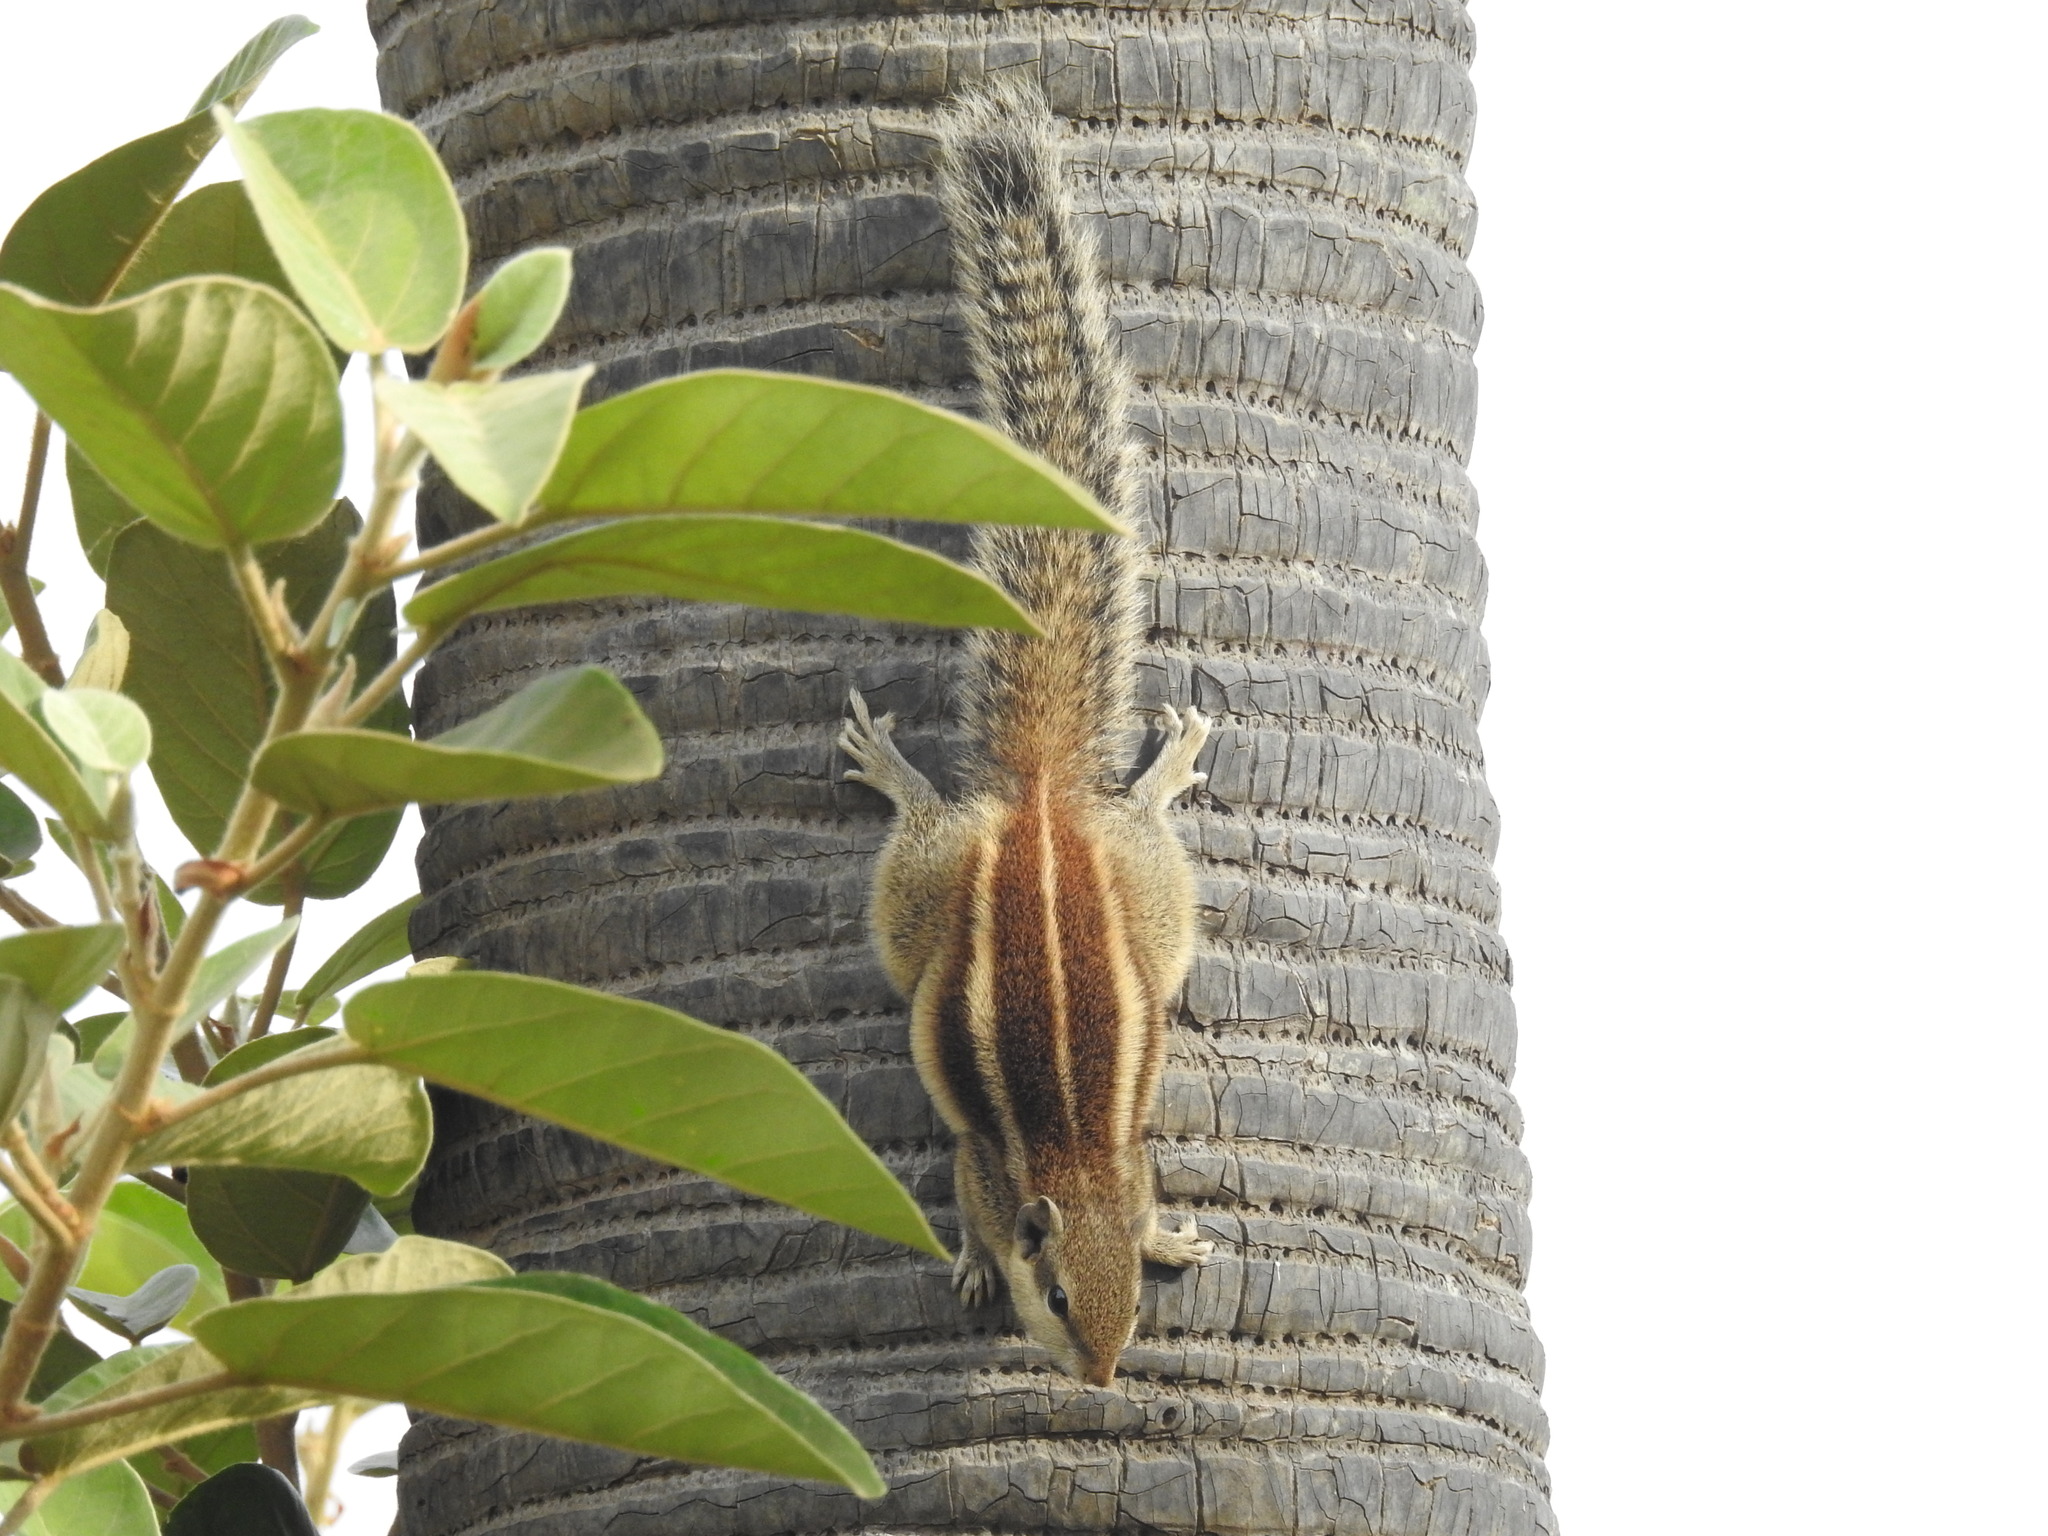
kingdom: Animalia
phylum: Chordata
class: Mammalia
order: Rodentia
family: Sciuridae
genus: Funambulus
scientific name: Funambulus pennantii
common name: Northern palm squirrel
